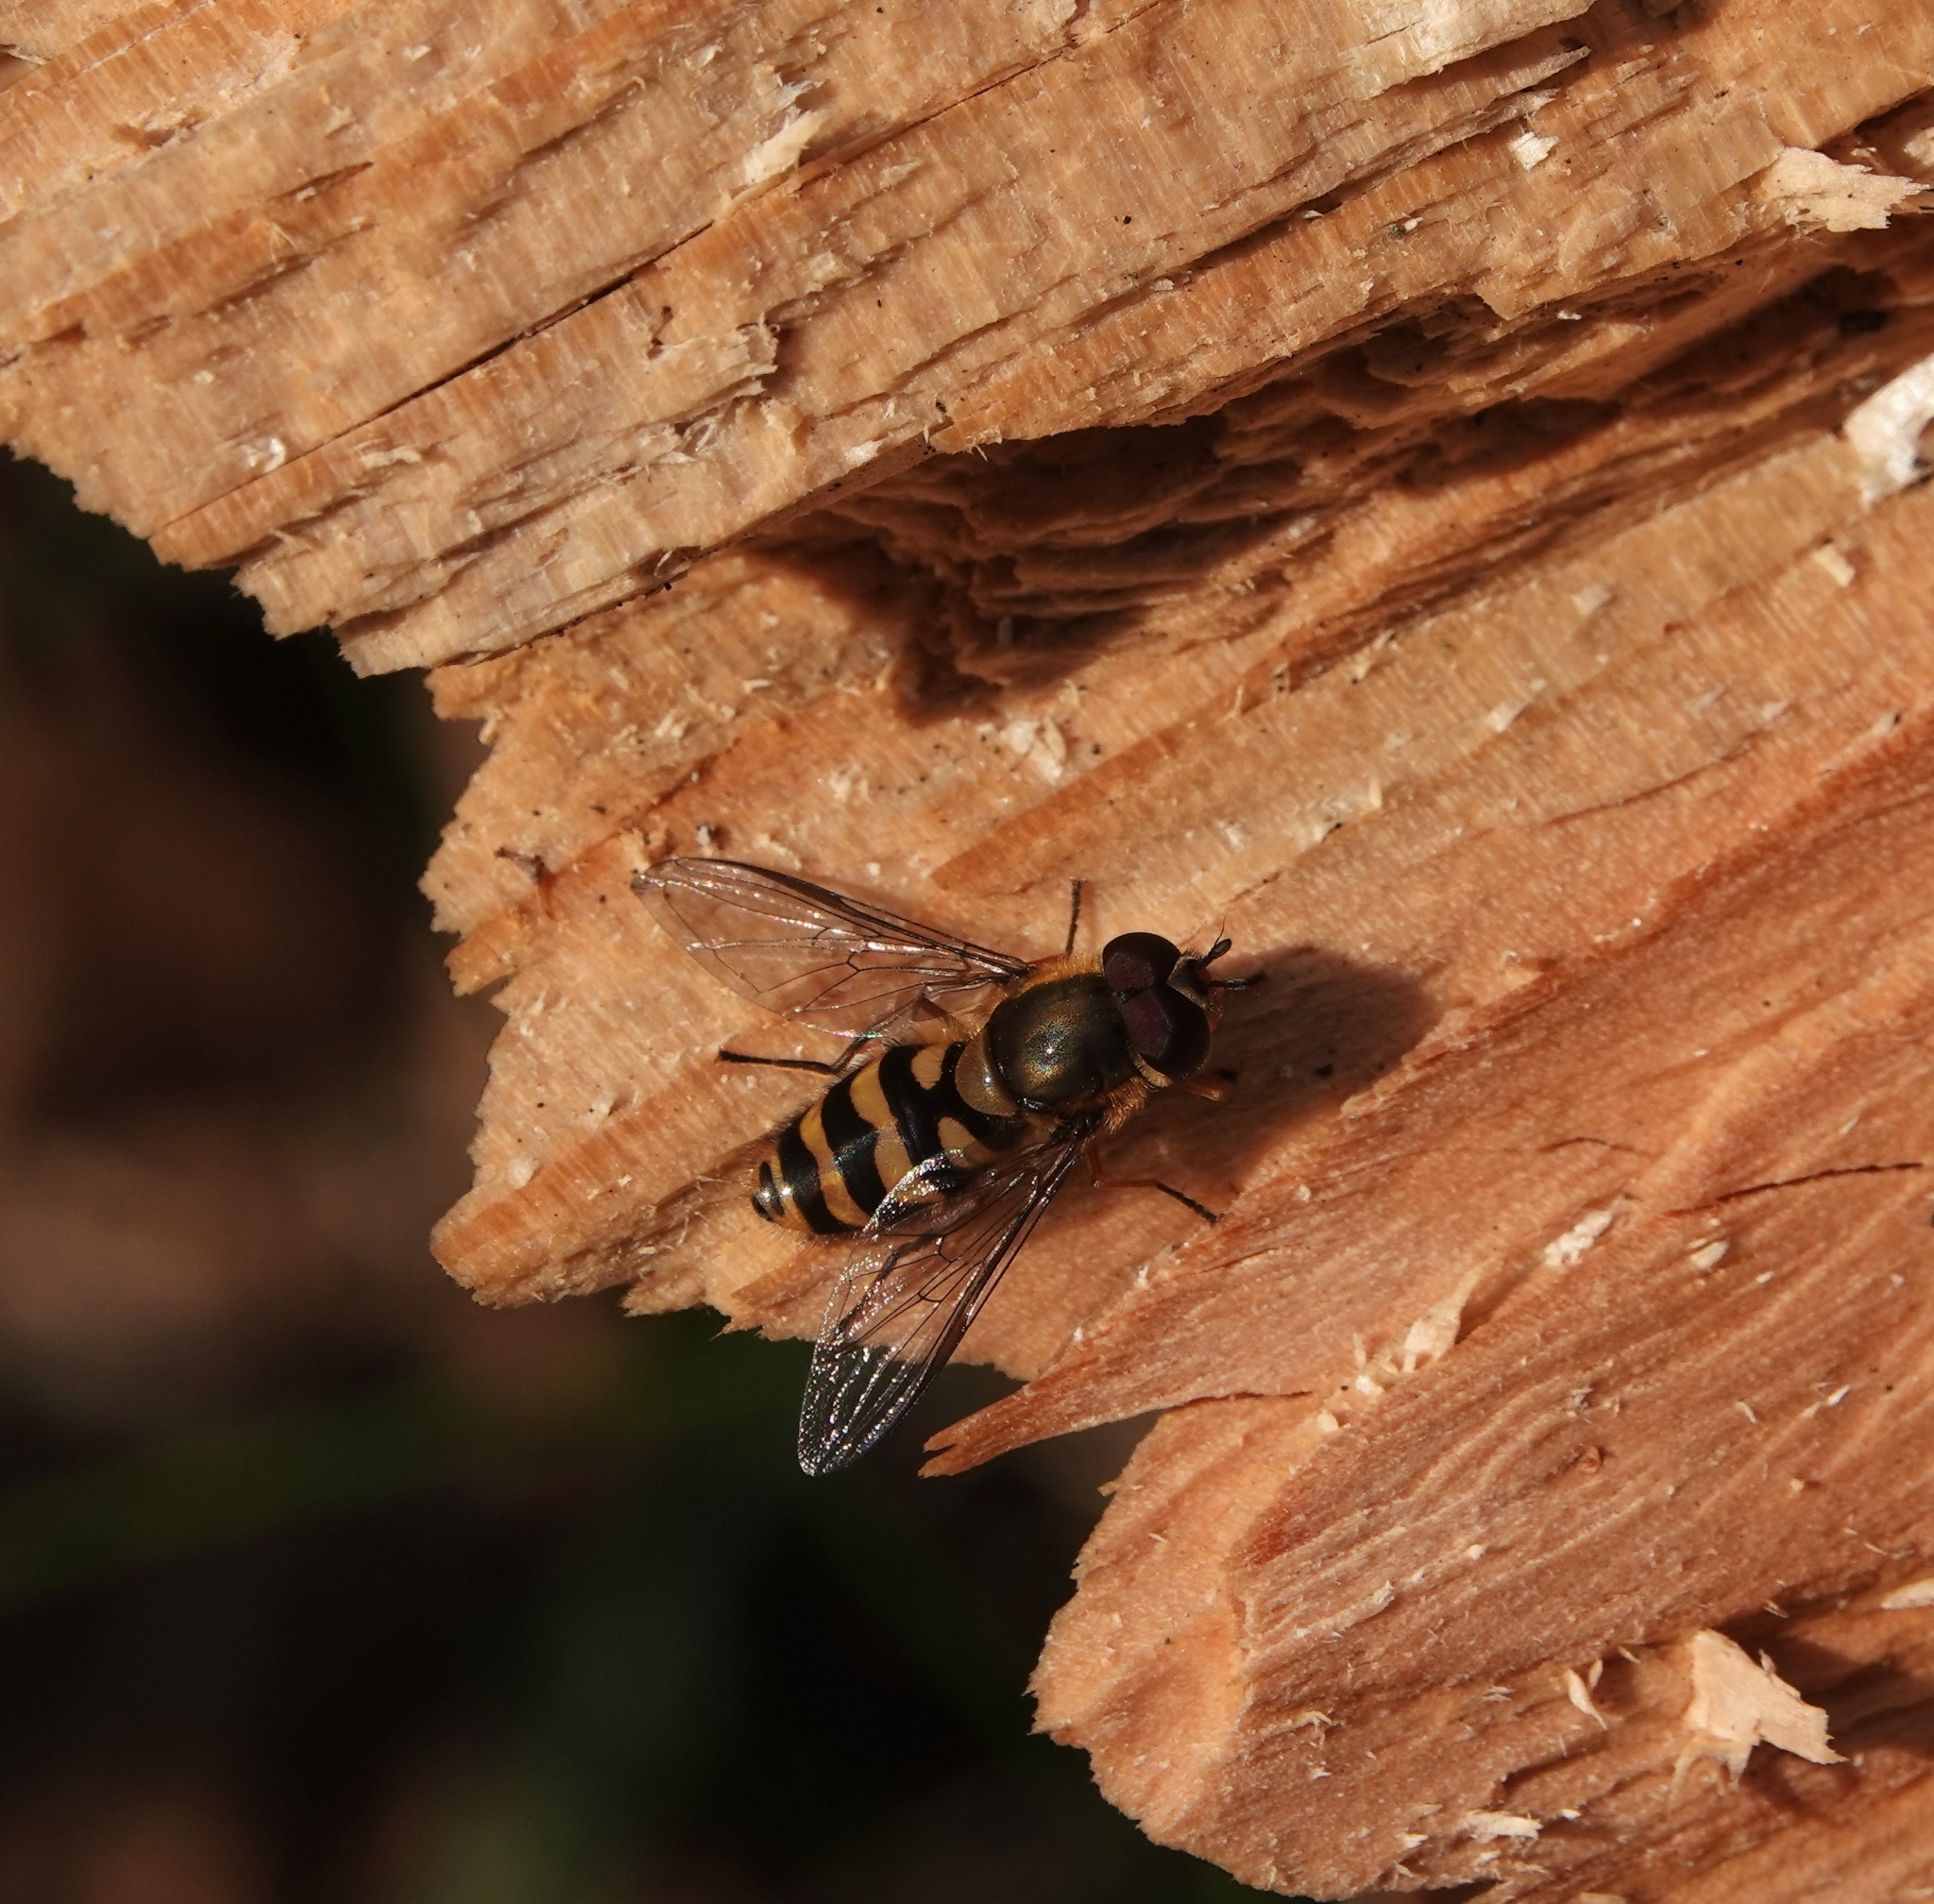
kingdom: Animalia
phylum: Arthropoda
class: Insecta
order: Diptera
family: Syrphidae
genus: Syrphus
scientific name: Syrphus
